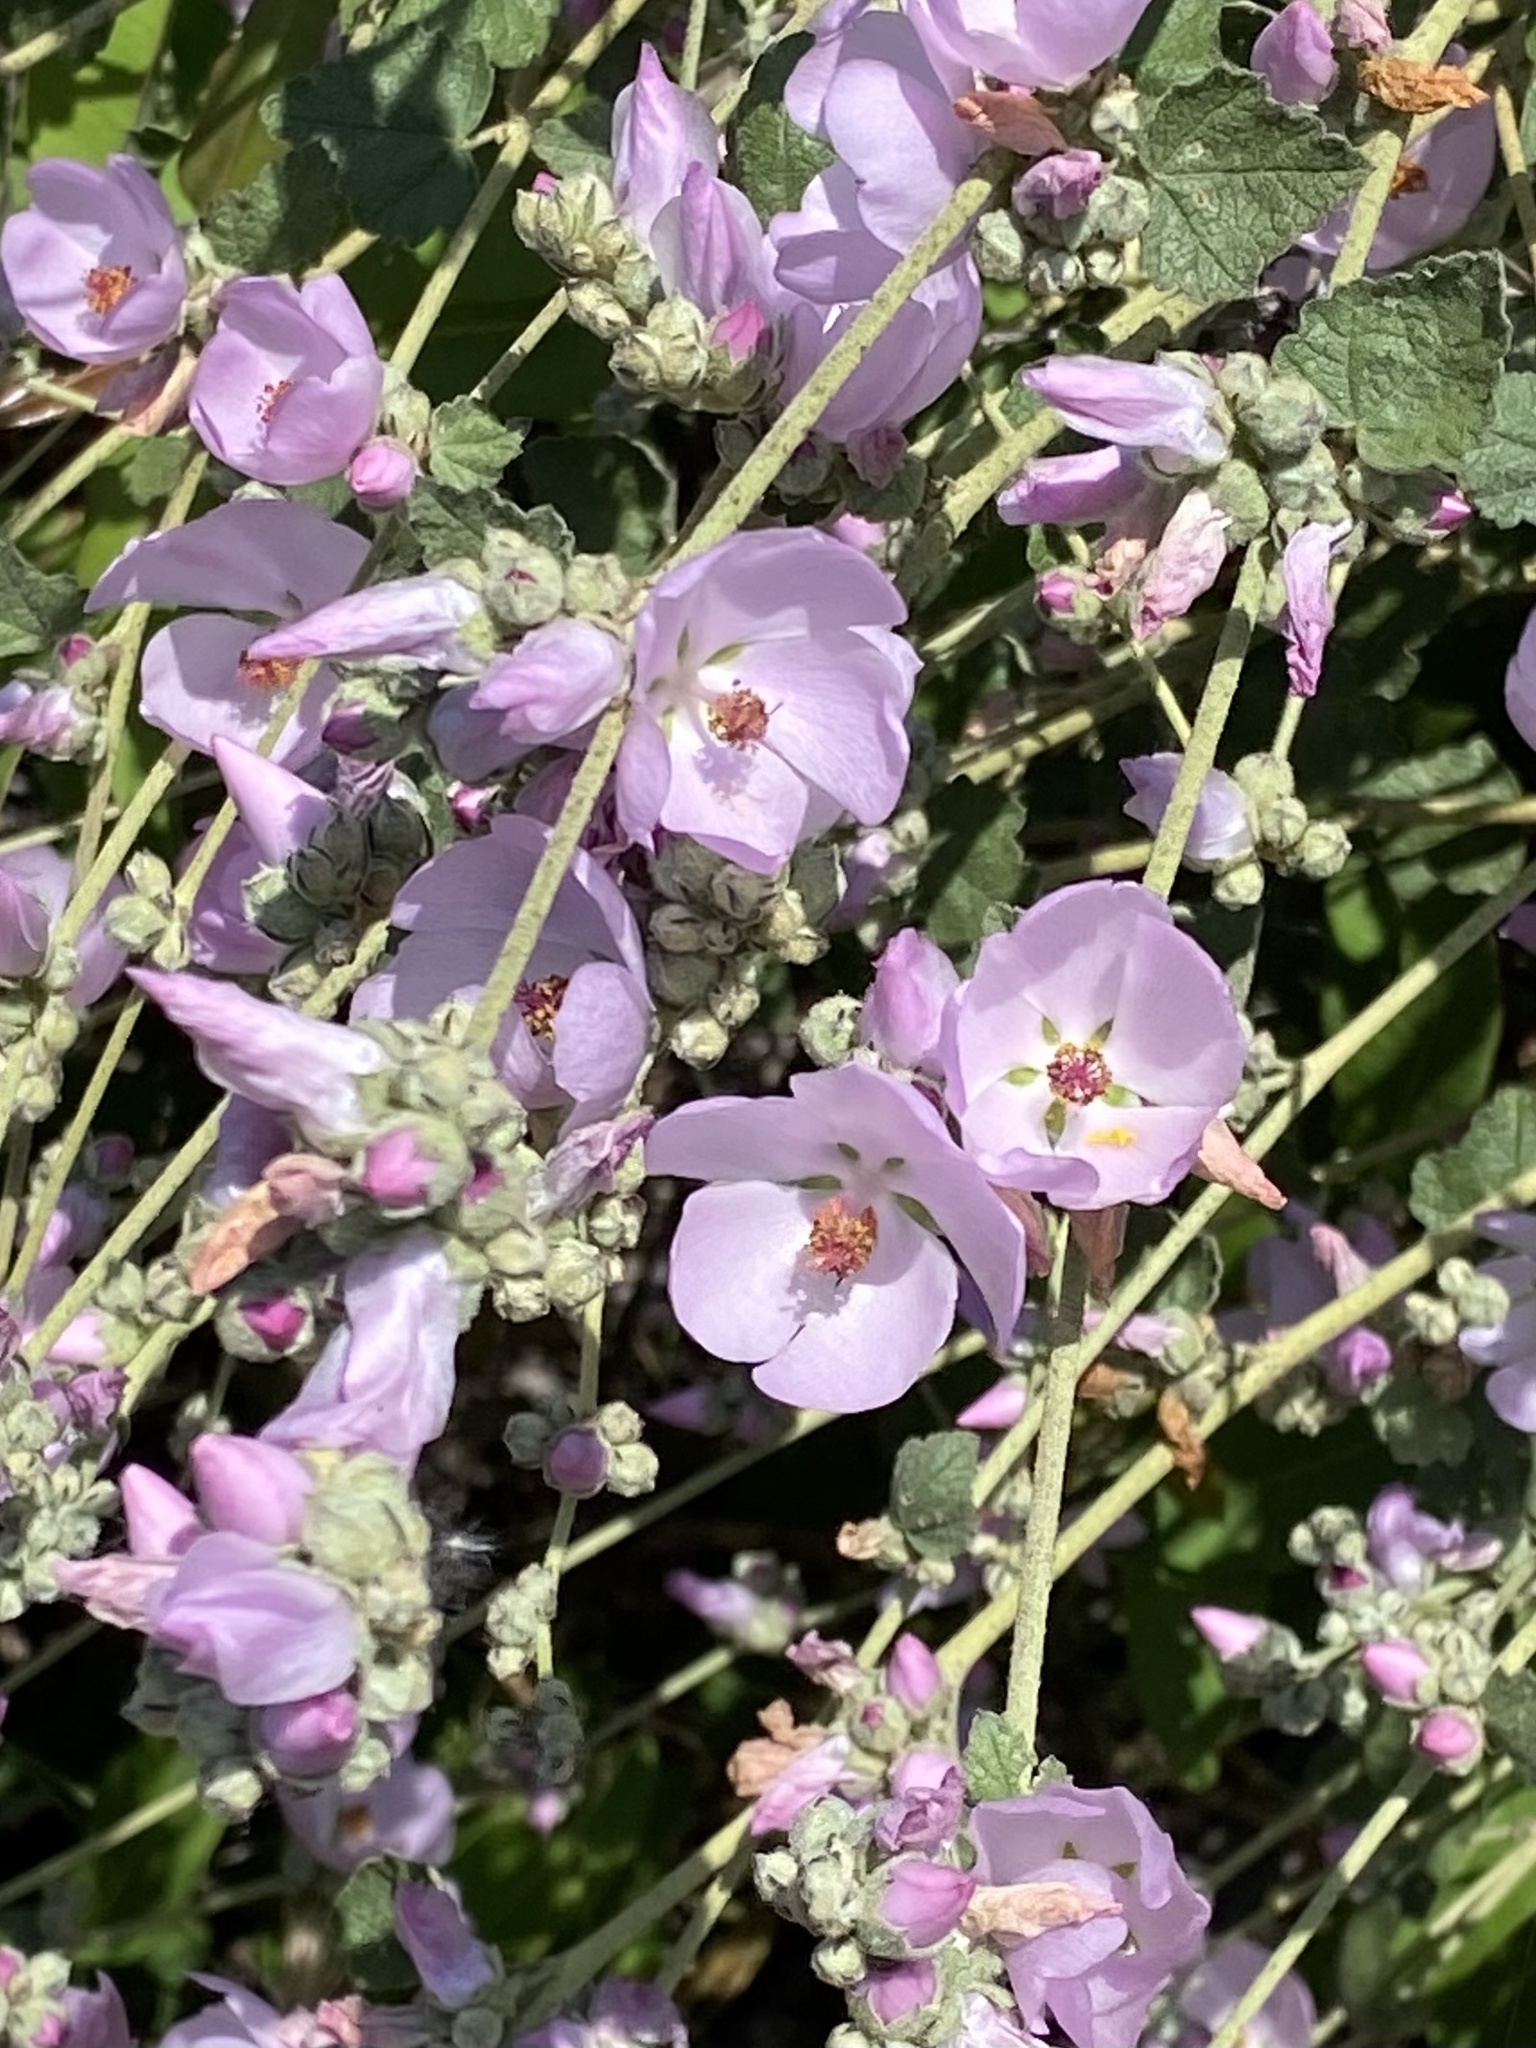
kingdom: Plantae
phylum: Tracheophyta
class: Magnoliopsida
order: Malvales
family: Malvaceae
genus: Malacothamnus
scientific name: Malacothamnus fasciculatus
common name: Sant cruz island bush-mallow
